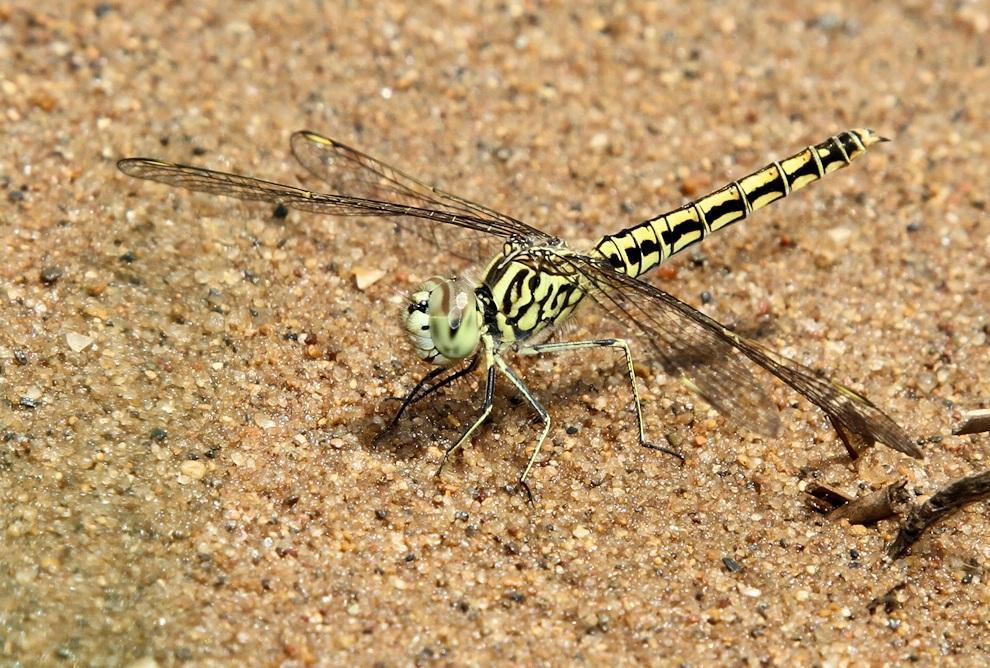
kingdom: Animalia
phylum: Arthropoda
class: Insecta
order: Odonata
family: Libellulidae
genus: Brachythemis
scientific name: Brachythemis leucosticta
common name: Banded groundling
